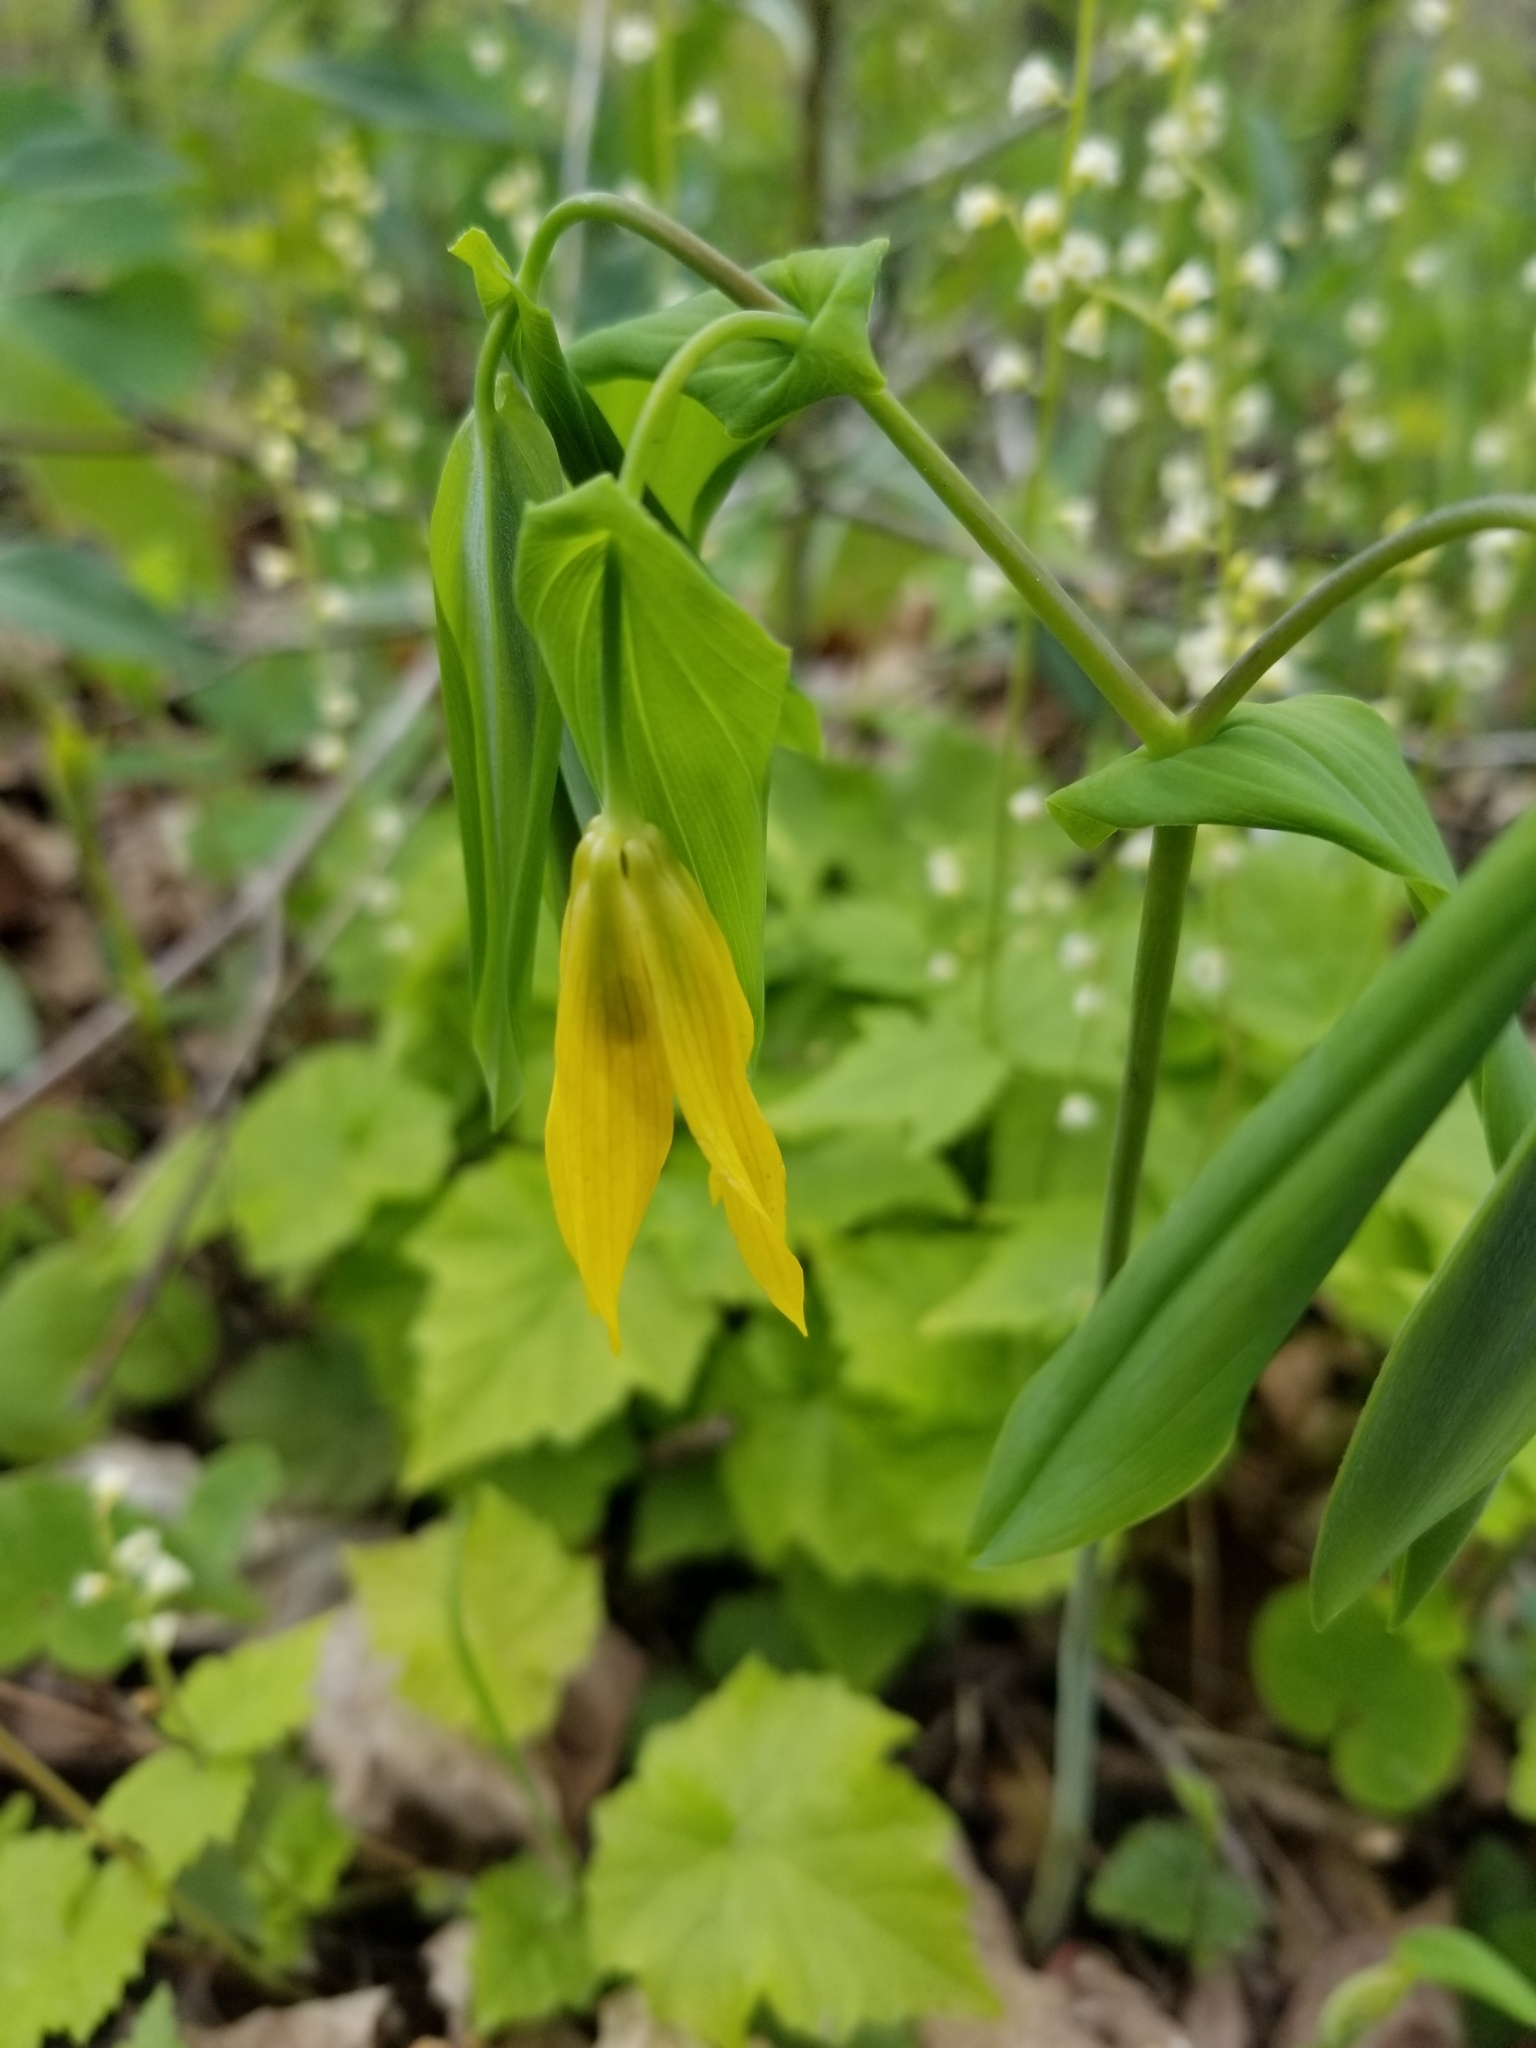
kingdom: Plantae
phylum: Tracheophyta
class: Liliopsida
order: Liliales
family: Colchicaceae
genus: Uvularia
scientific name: Uvularia grandiflora
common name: Bellwort
